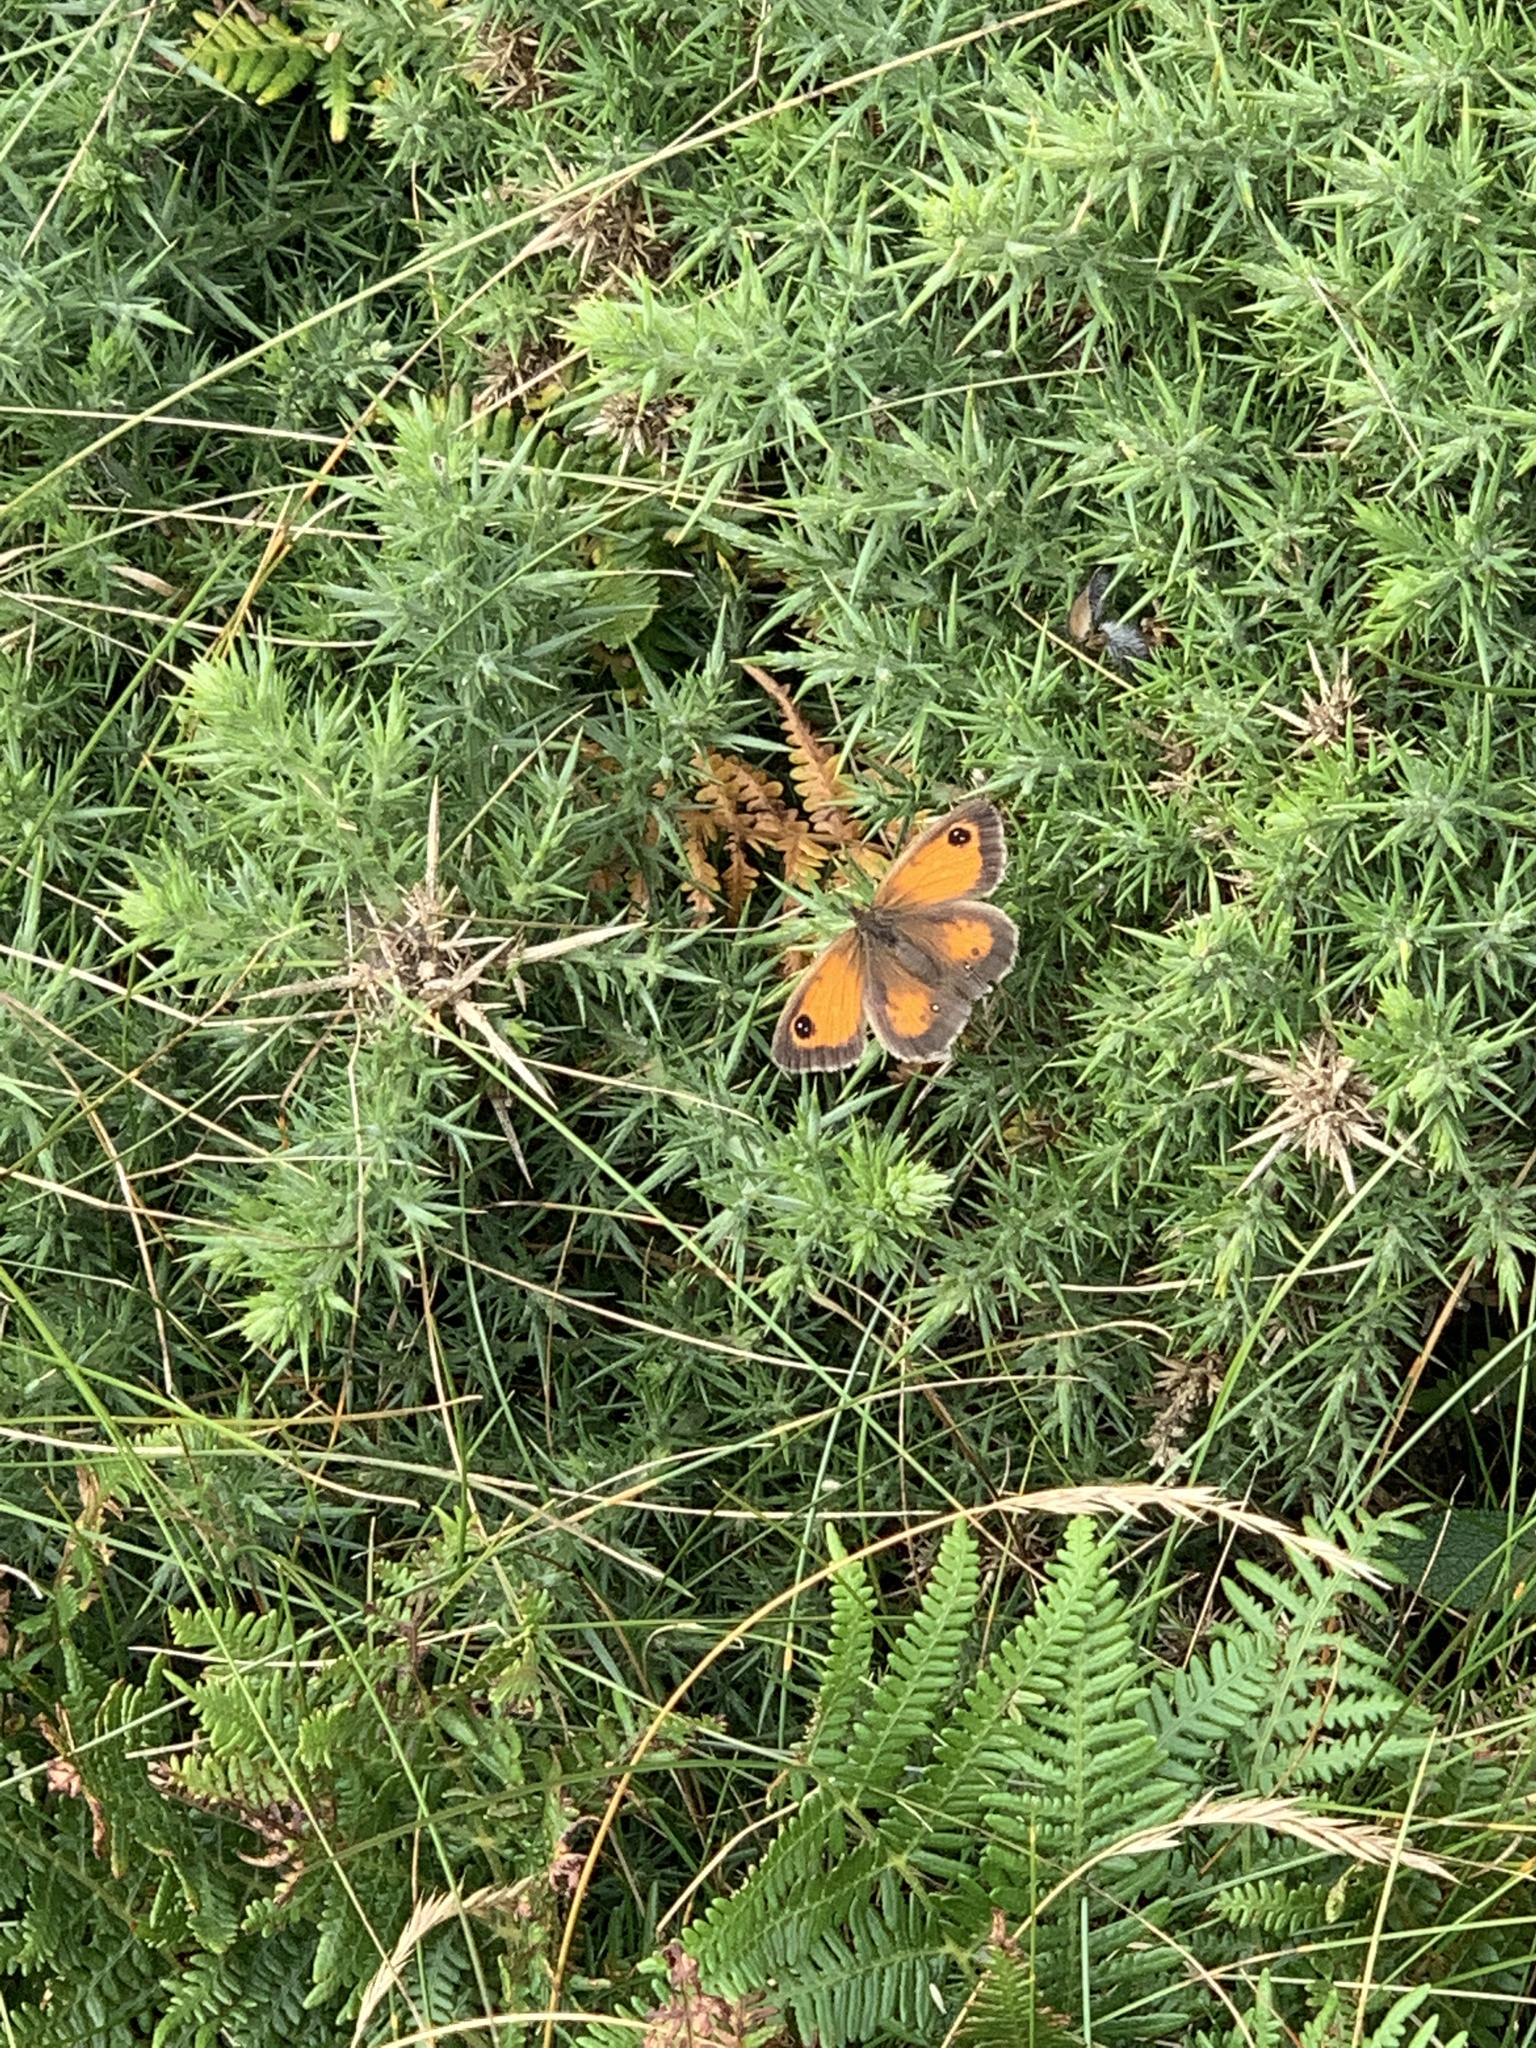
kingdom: Animalia
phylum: Arthropoda
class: Insecta
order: Lepidoptera
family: Nymphalidae
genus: Pyronia
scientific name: Pyronia tithonus
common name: Gatekeeper
